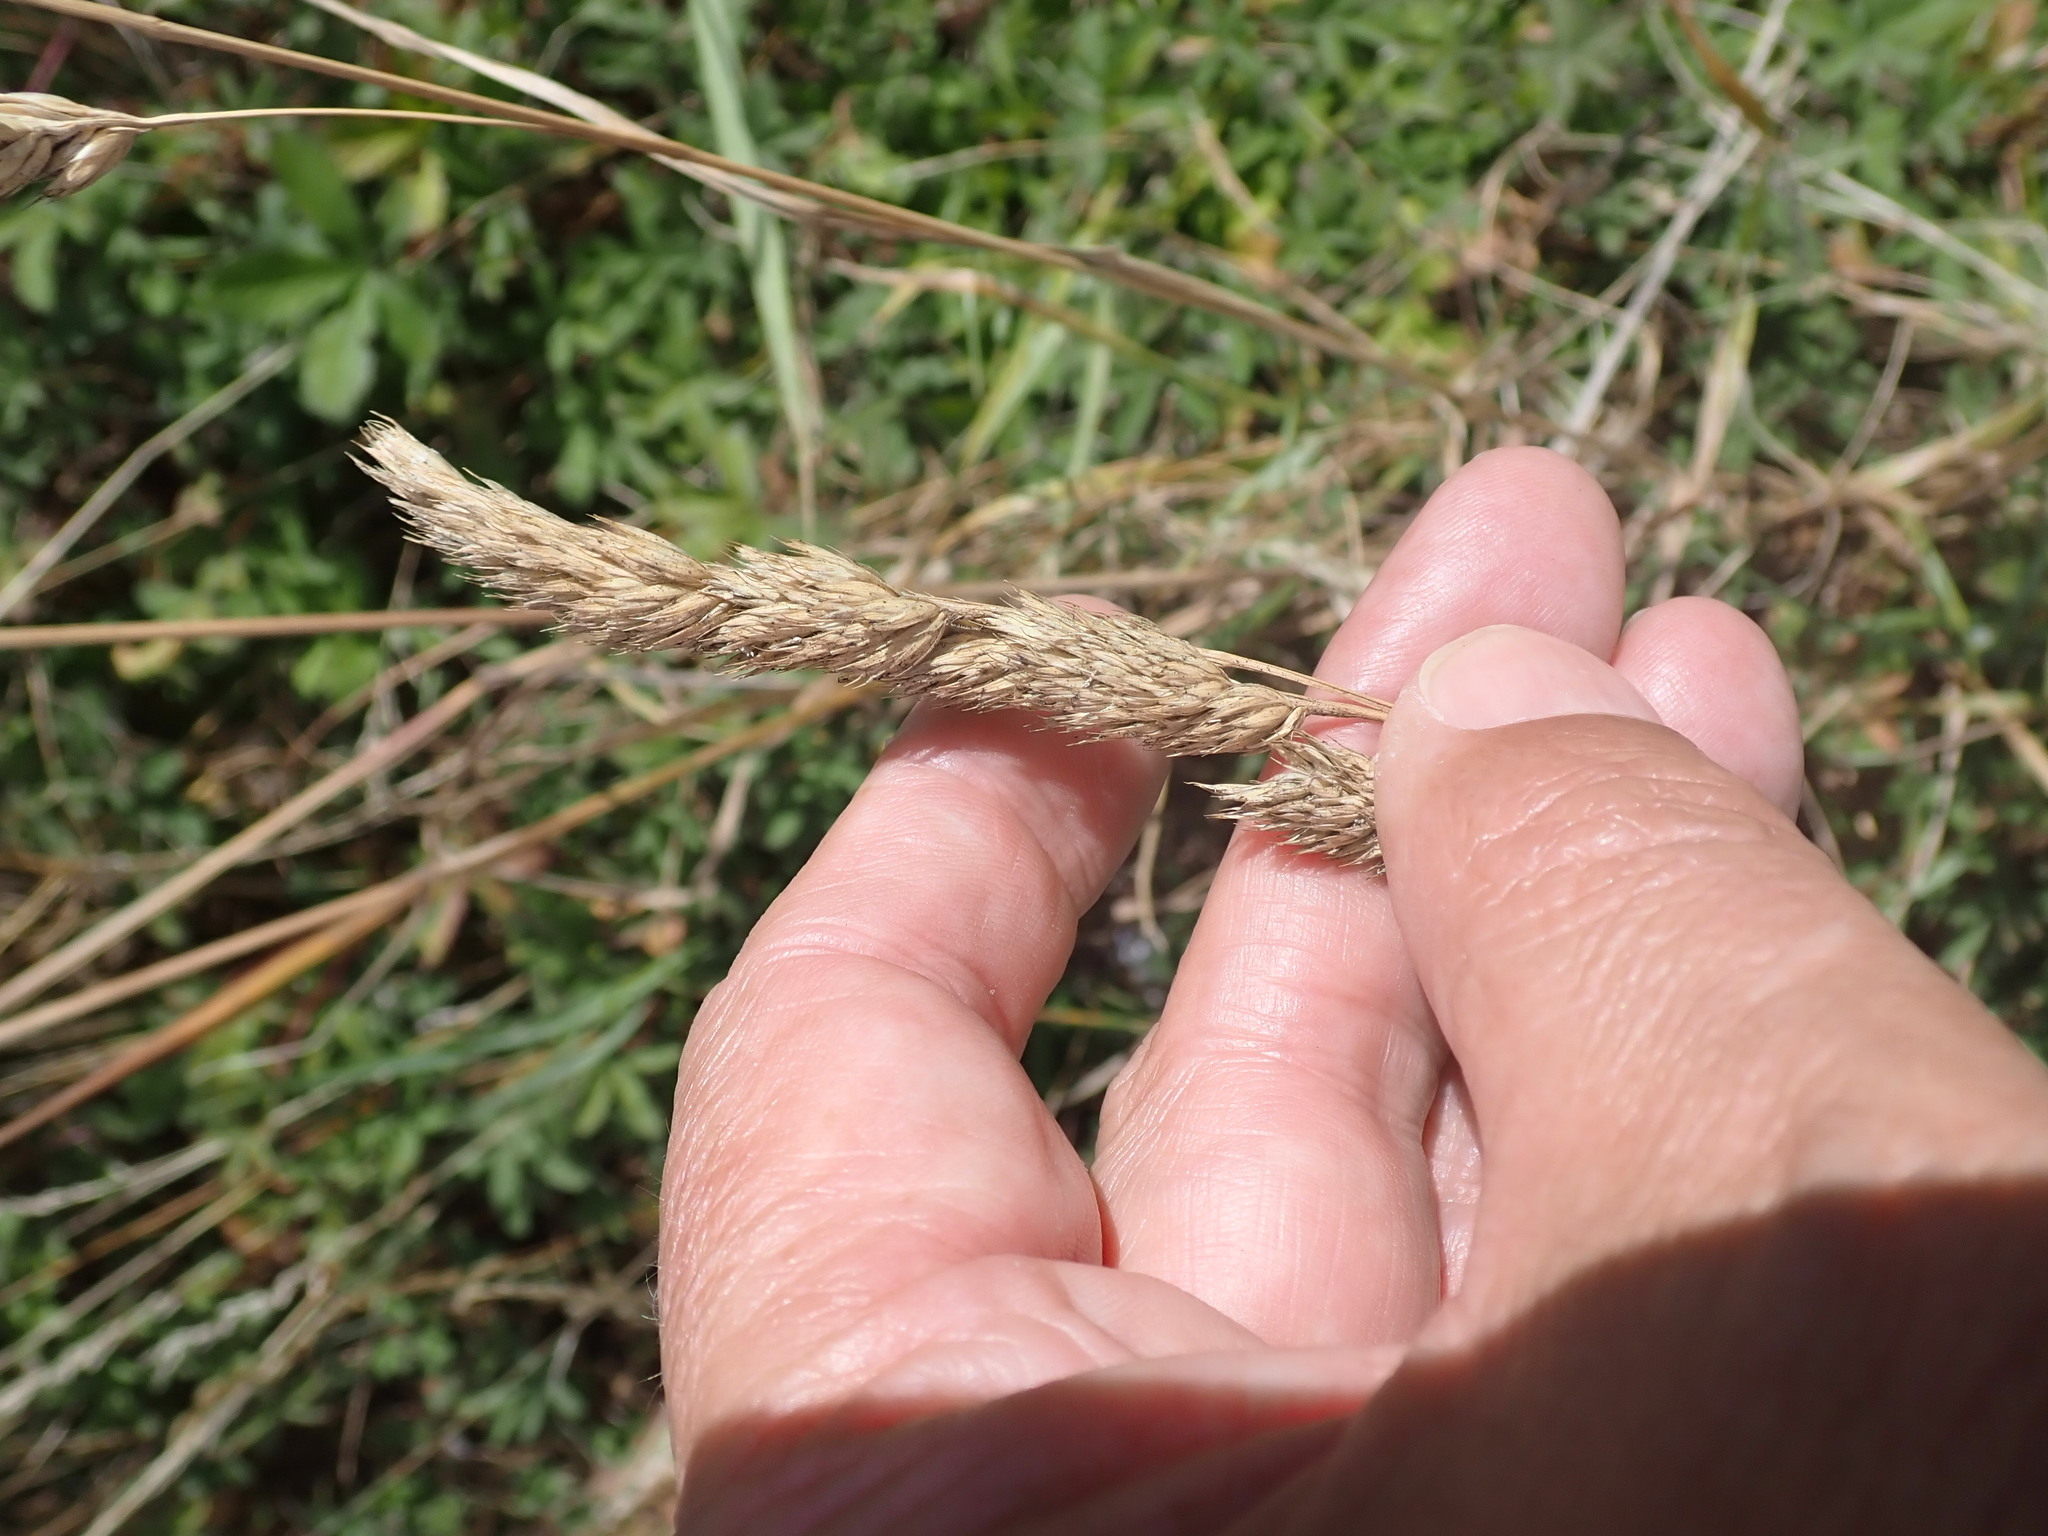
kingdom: Plantae
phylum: Tracheophyta
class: Liliopsida
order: Poales
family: Poaceae
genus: Dactylis
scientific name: Dactylis glomerata
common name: Orchardgrass
